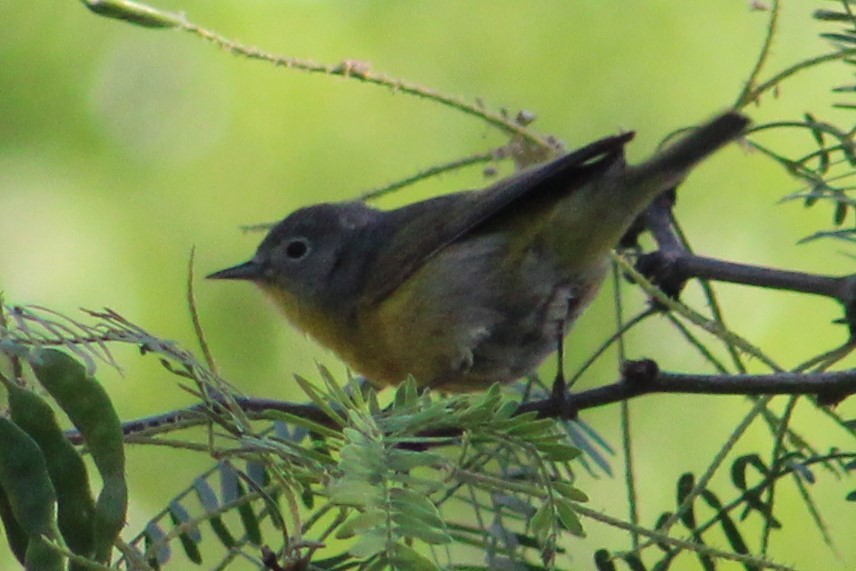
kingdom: Animalia
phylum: Chordata
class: Aves
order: Passeriformes
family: Parulidae
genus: Leiothlypis
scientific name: Leiothlypis ruficapilla
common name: Nashville warbler
